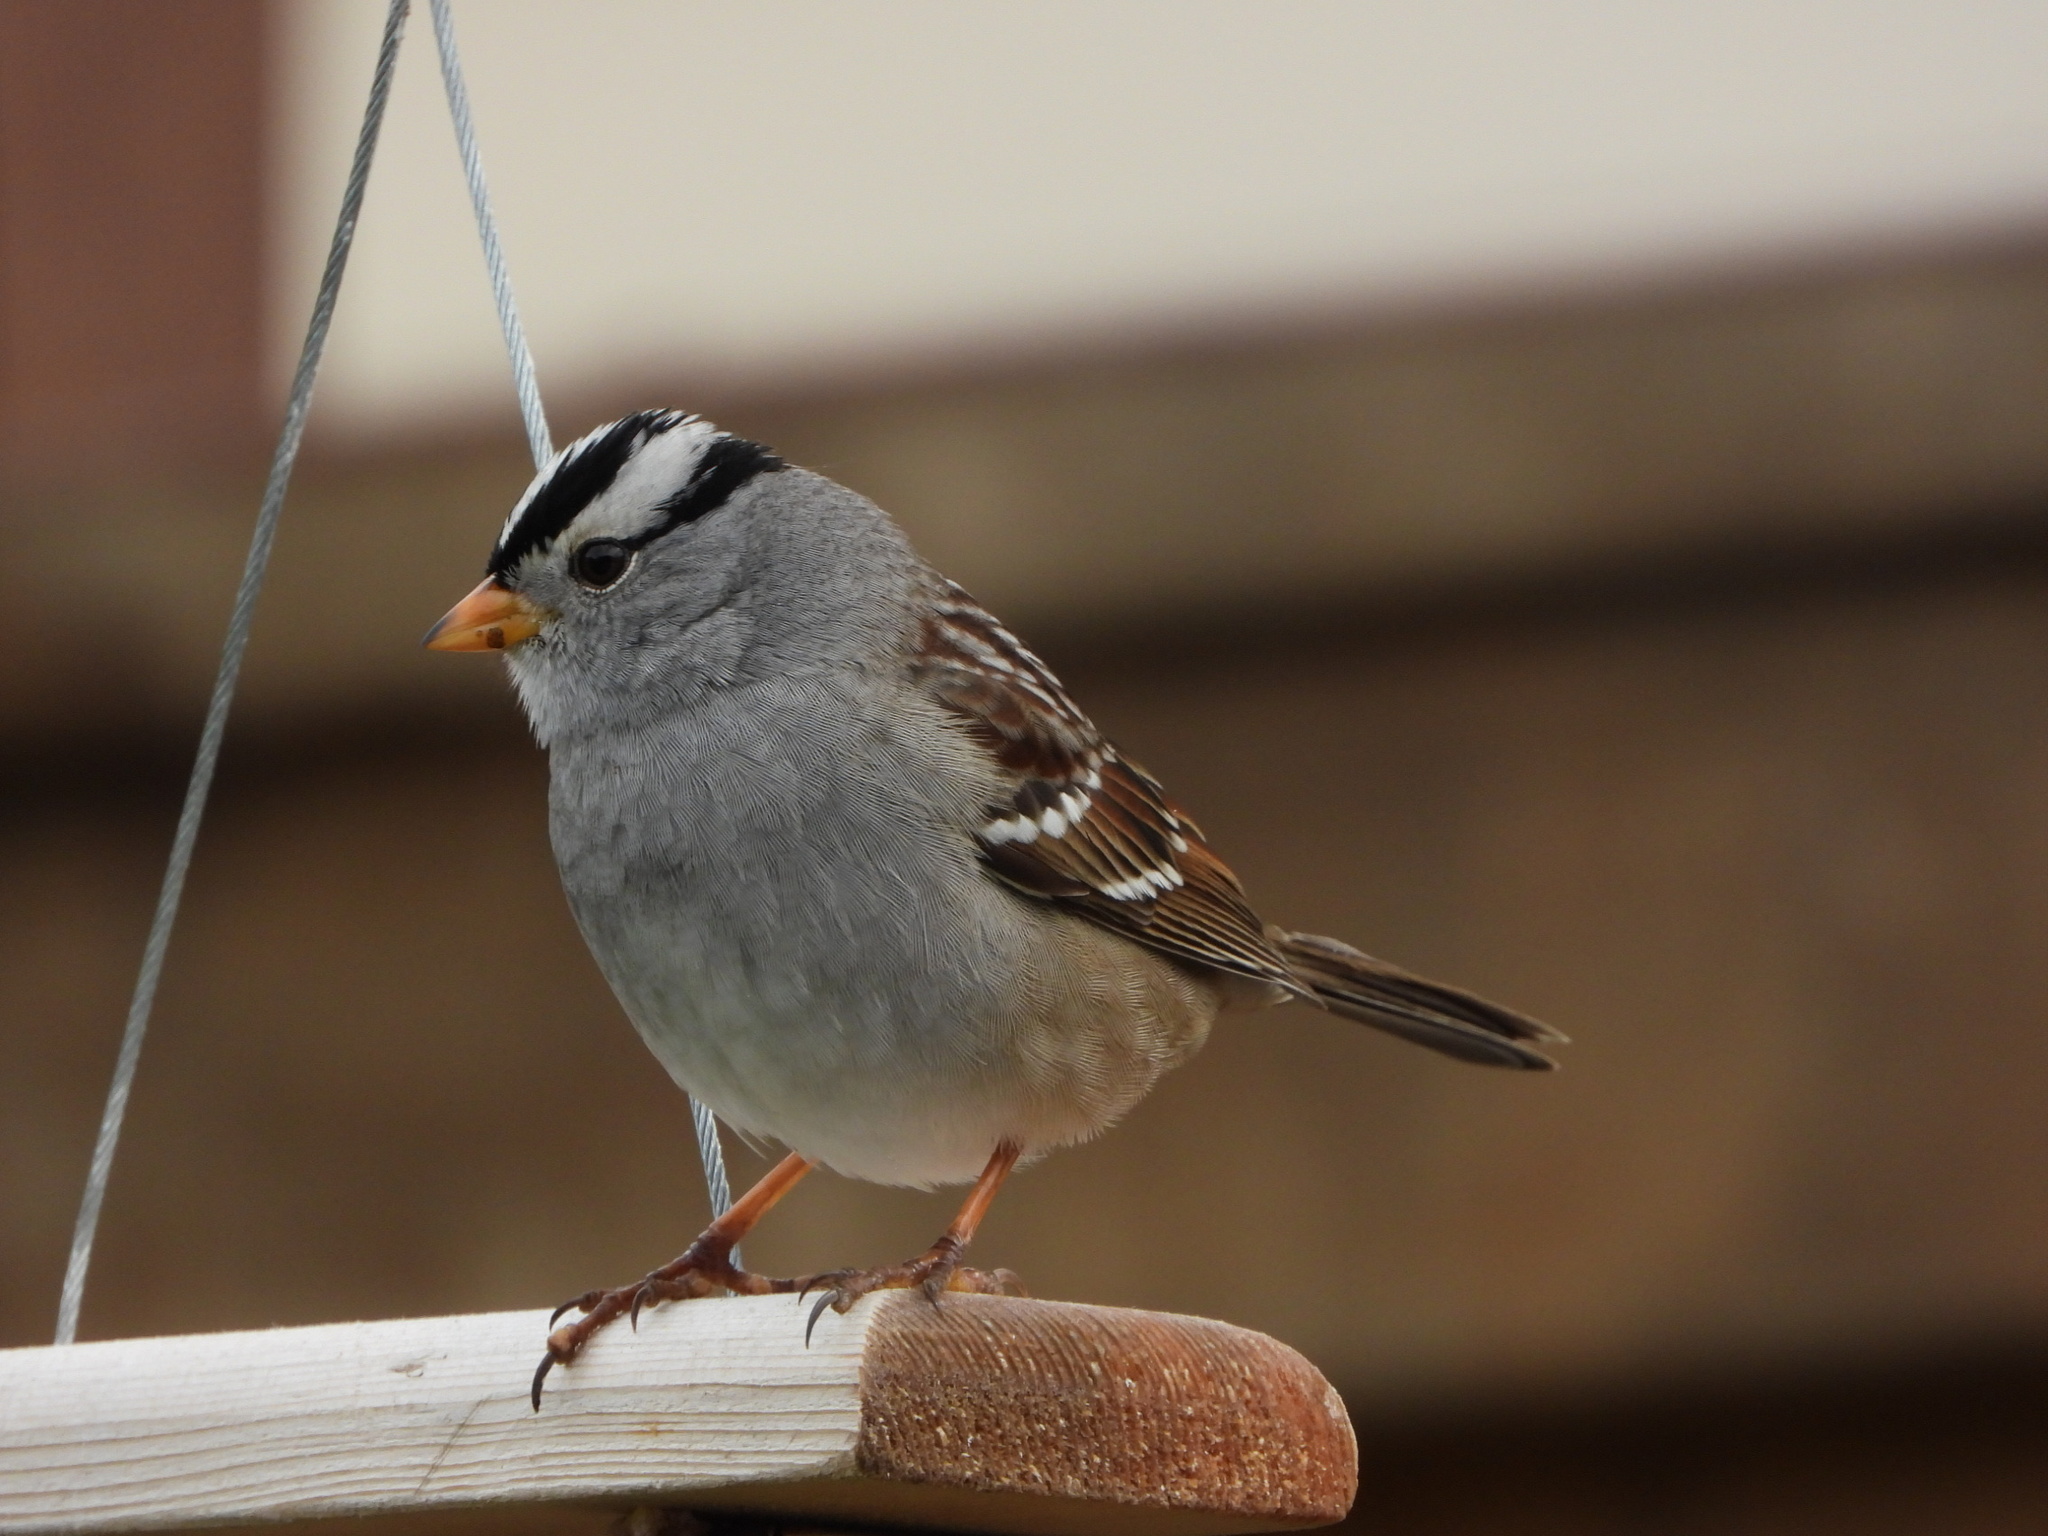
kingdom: Animalia
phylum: Chordata
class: Aves
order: Passeriformes
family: Passerellidae
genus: Zonotrichia
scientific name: Zonotrichia leucophrys
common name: White-crowned sparrow
